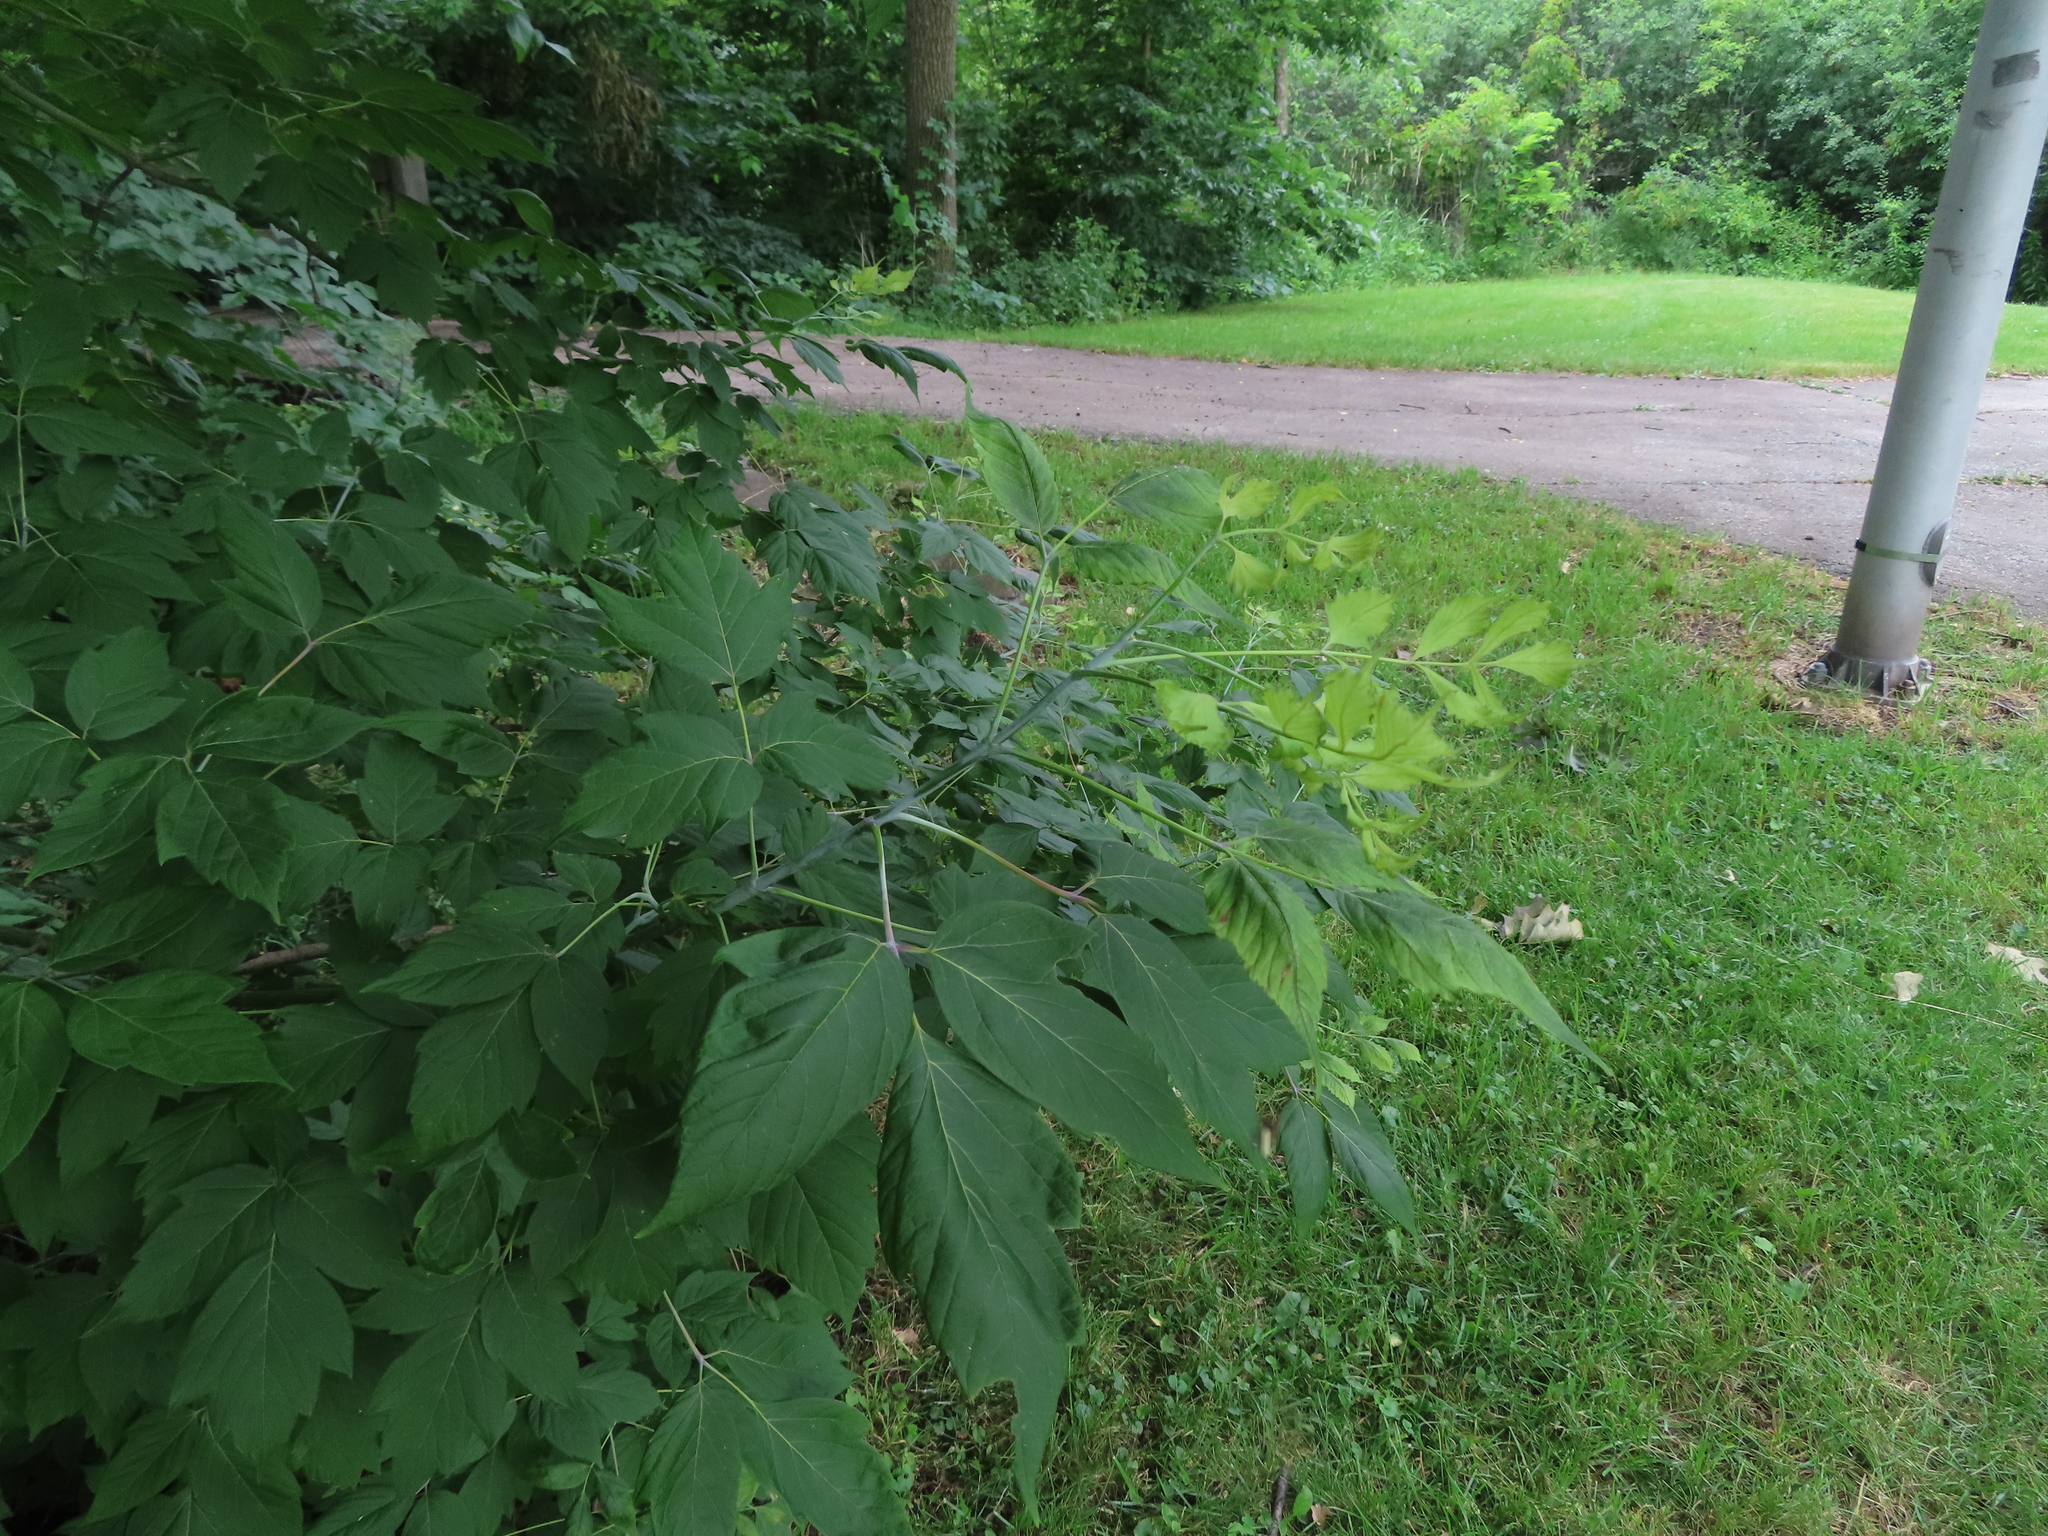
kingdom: Plantae
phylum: Tracheophyta
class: Magnoliopsida
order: Sapindales
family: Sapindaceae
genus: Acer
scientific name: Acer negundo
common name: Ashleaf maple
